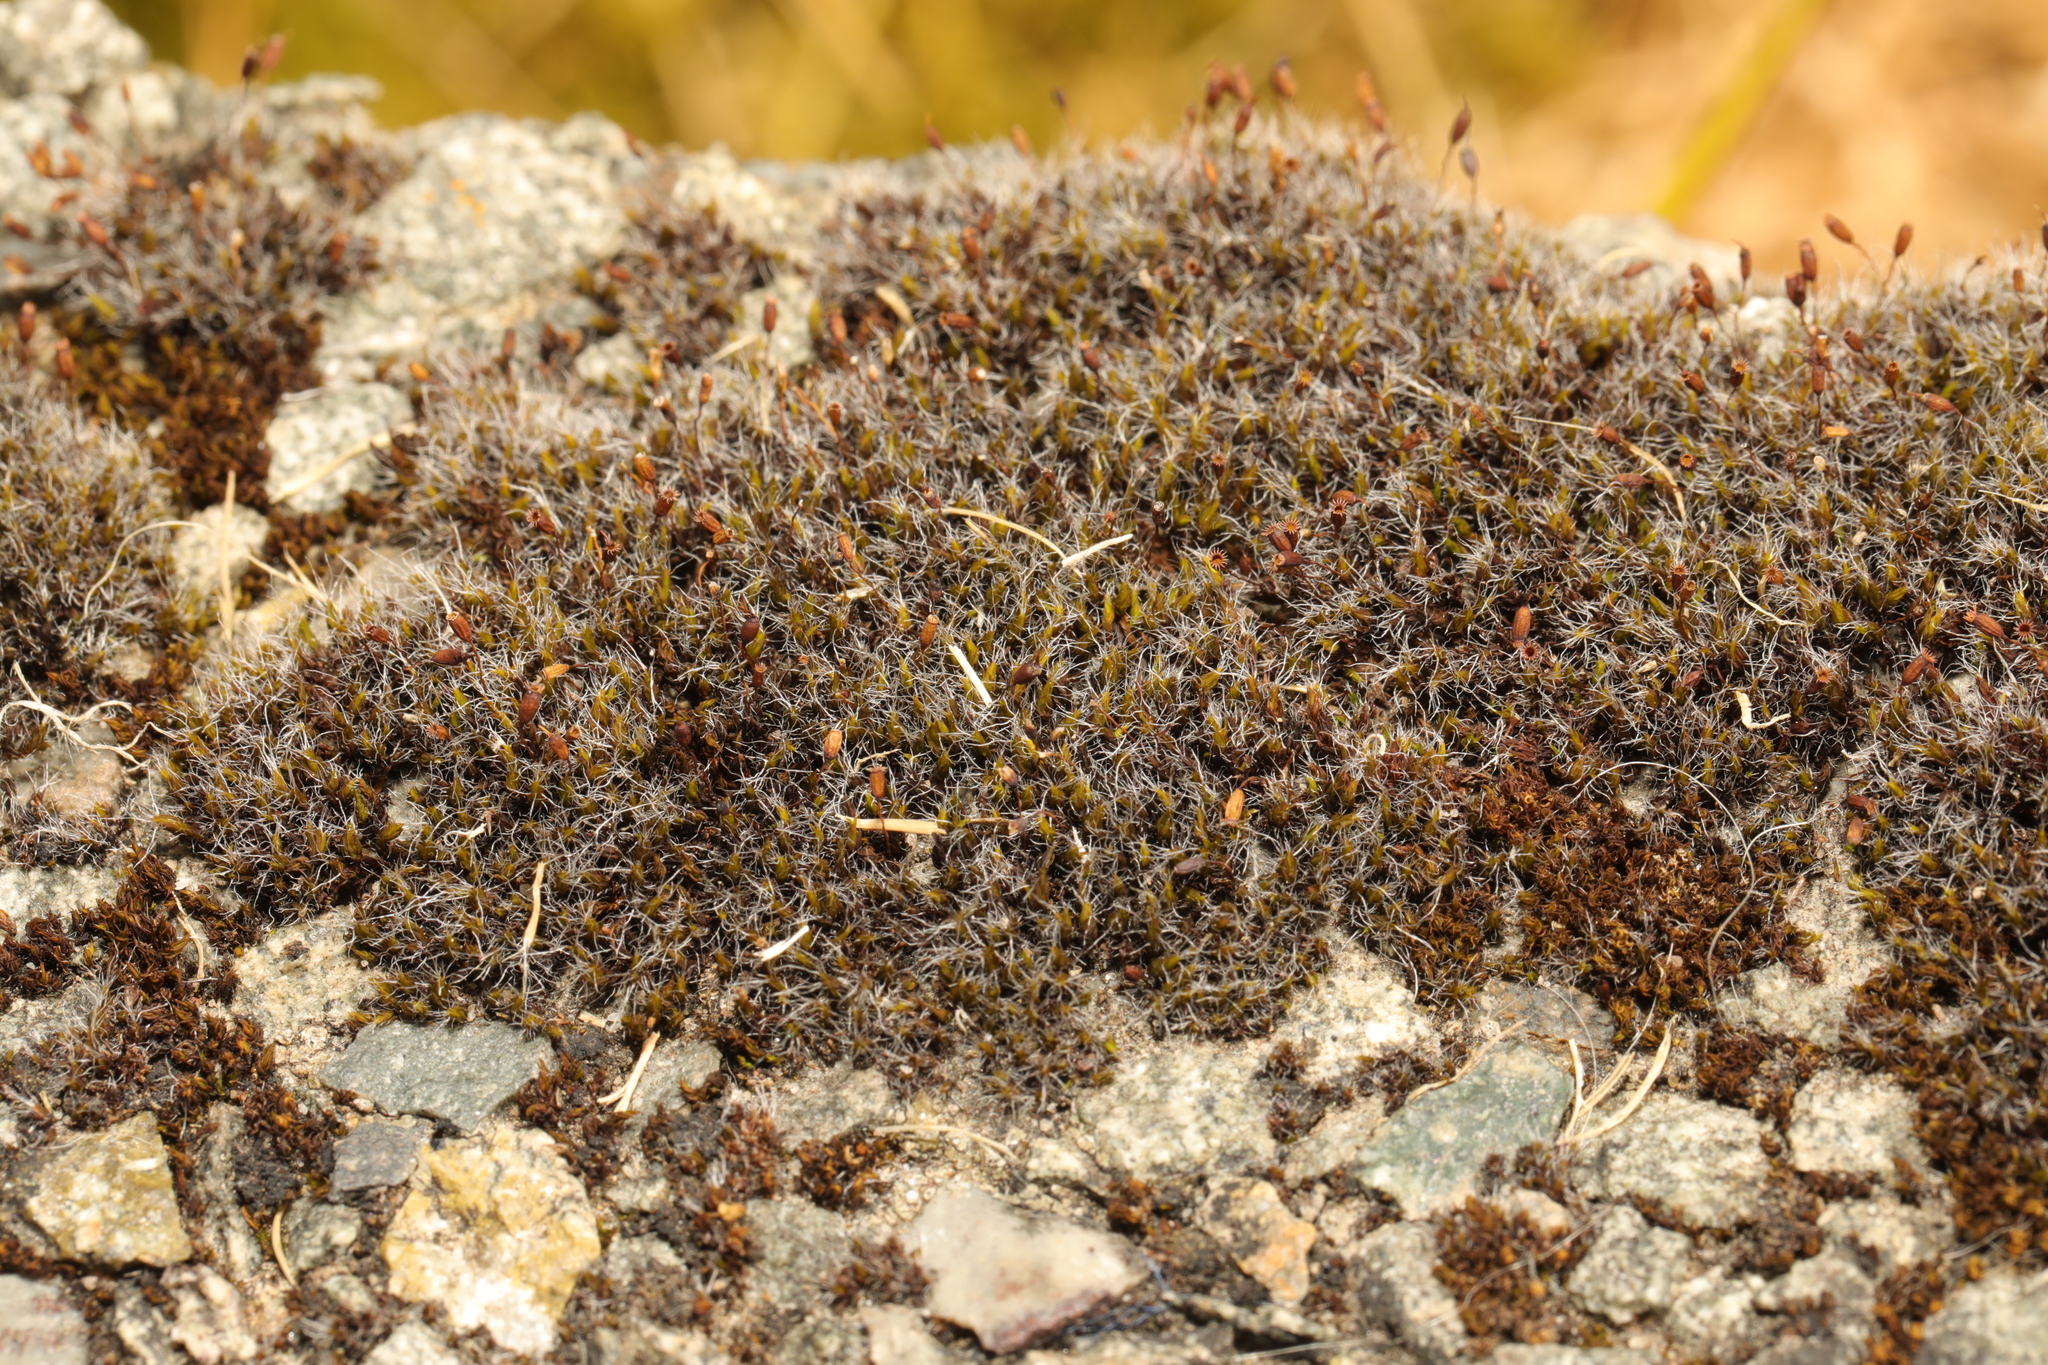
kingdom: Plantae
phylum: Bryophyta
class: Bryopsida
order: Grimmiales
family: Grimmiaceae
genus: Grimmia
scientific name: Grimmia pulvinata
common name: Grey-cushioned grimmia
